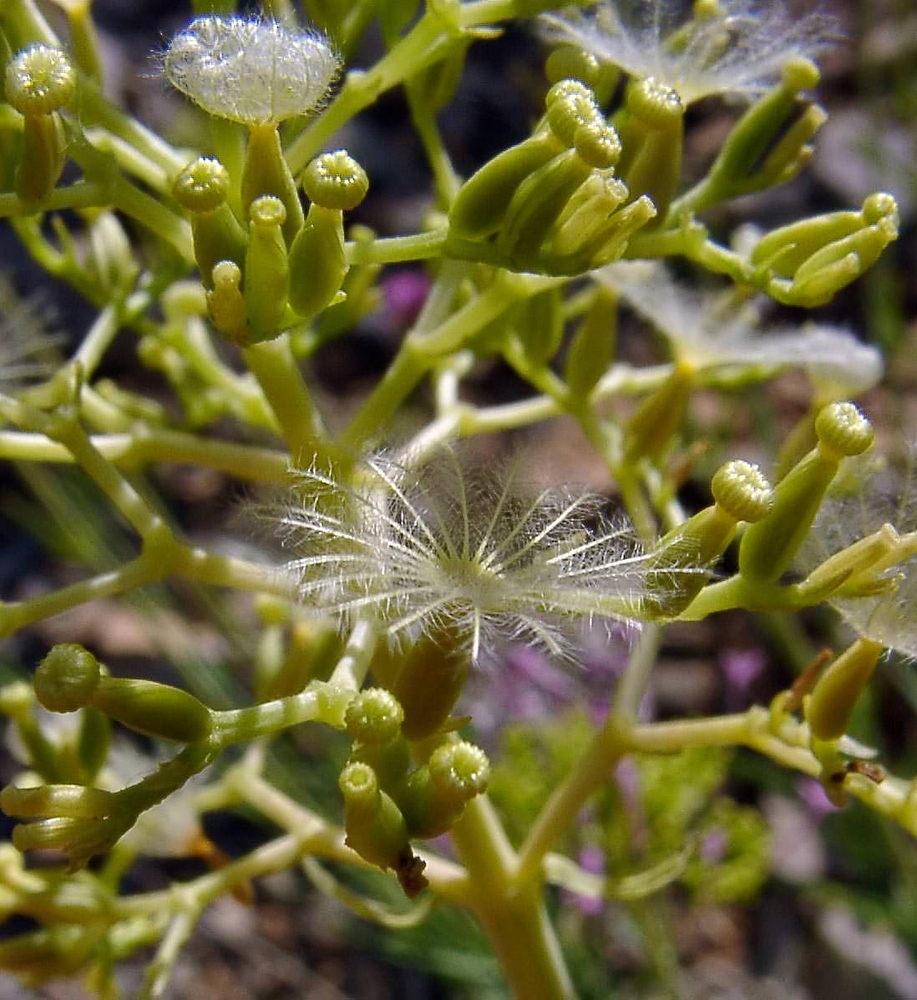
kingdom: Plantae
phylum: Tracheophyta
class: Magnoliopsida
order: Dipsacales
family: Caprifoliaceae
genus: Centranthus
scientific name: Centranthus lecoqii
